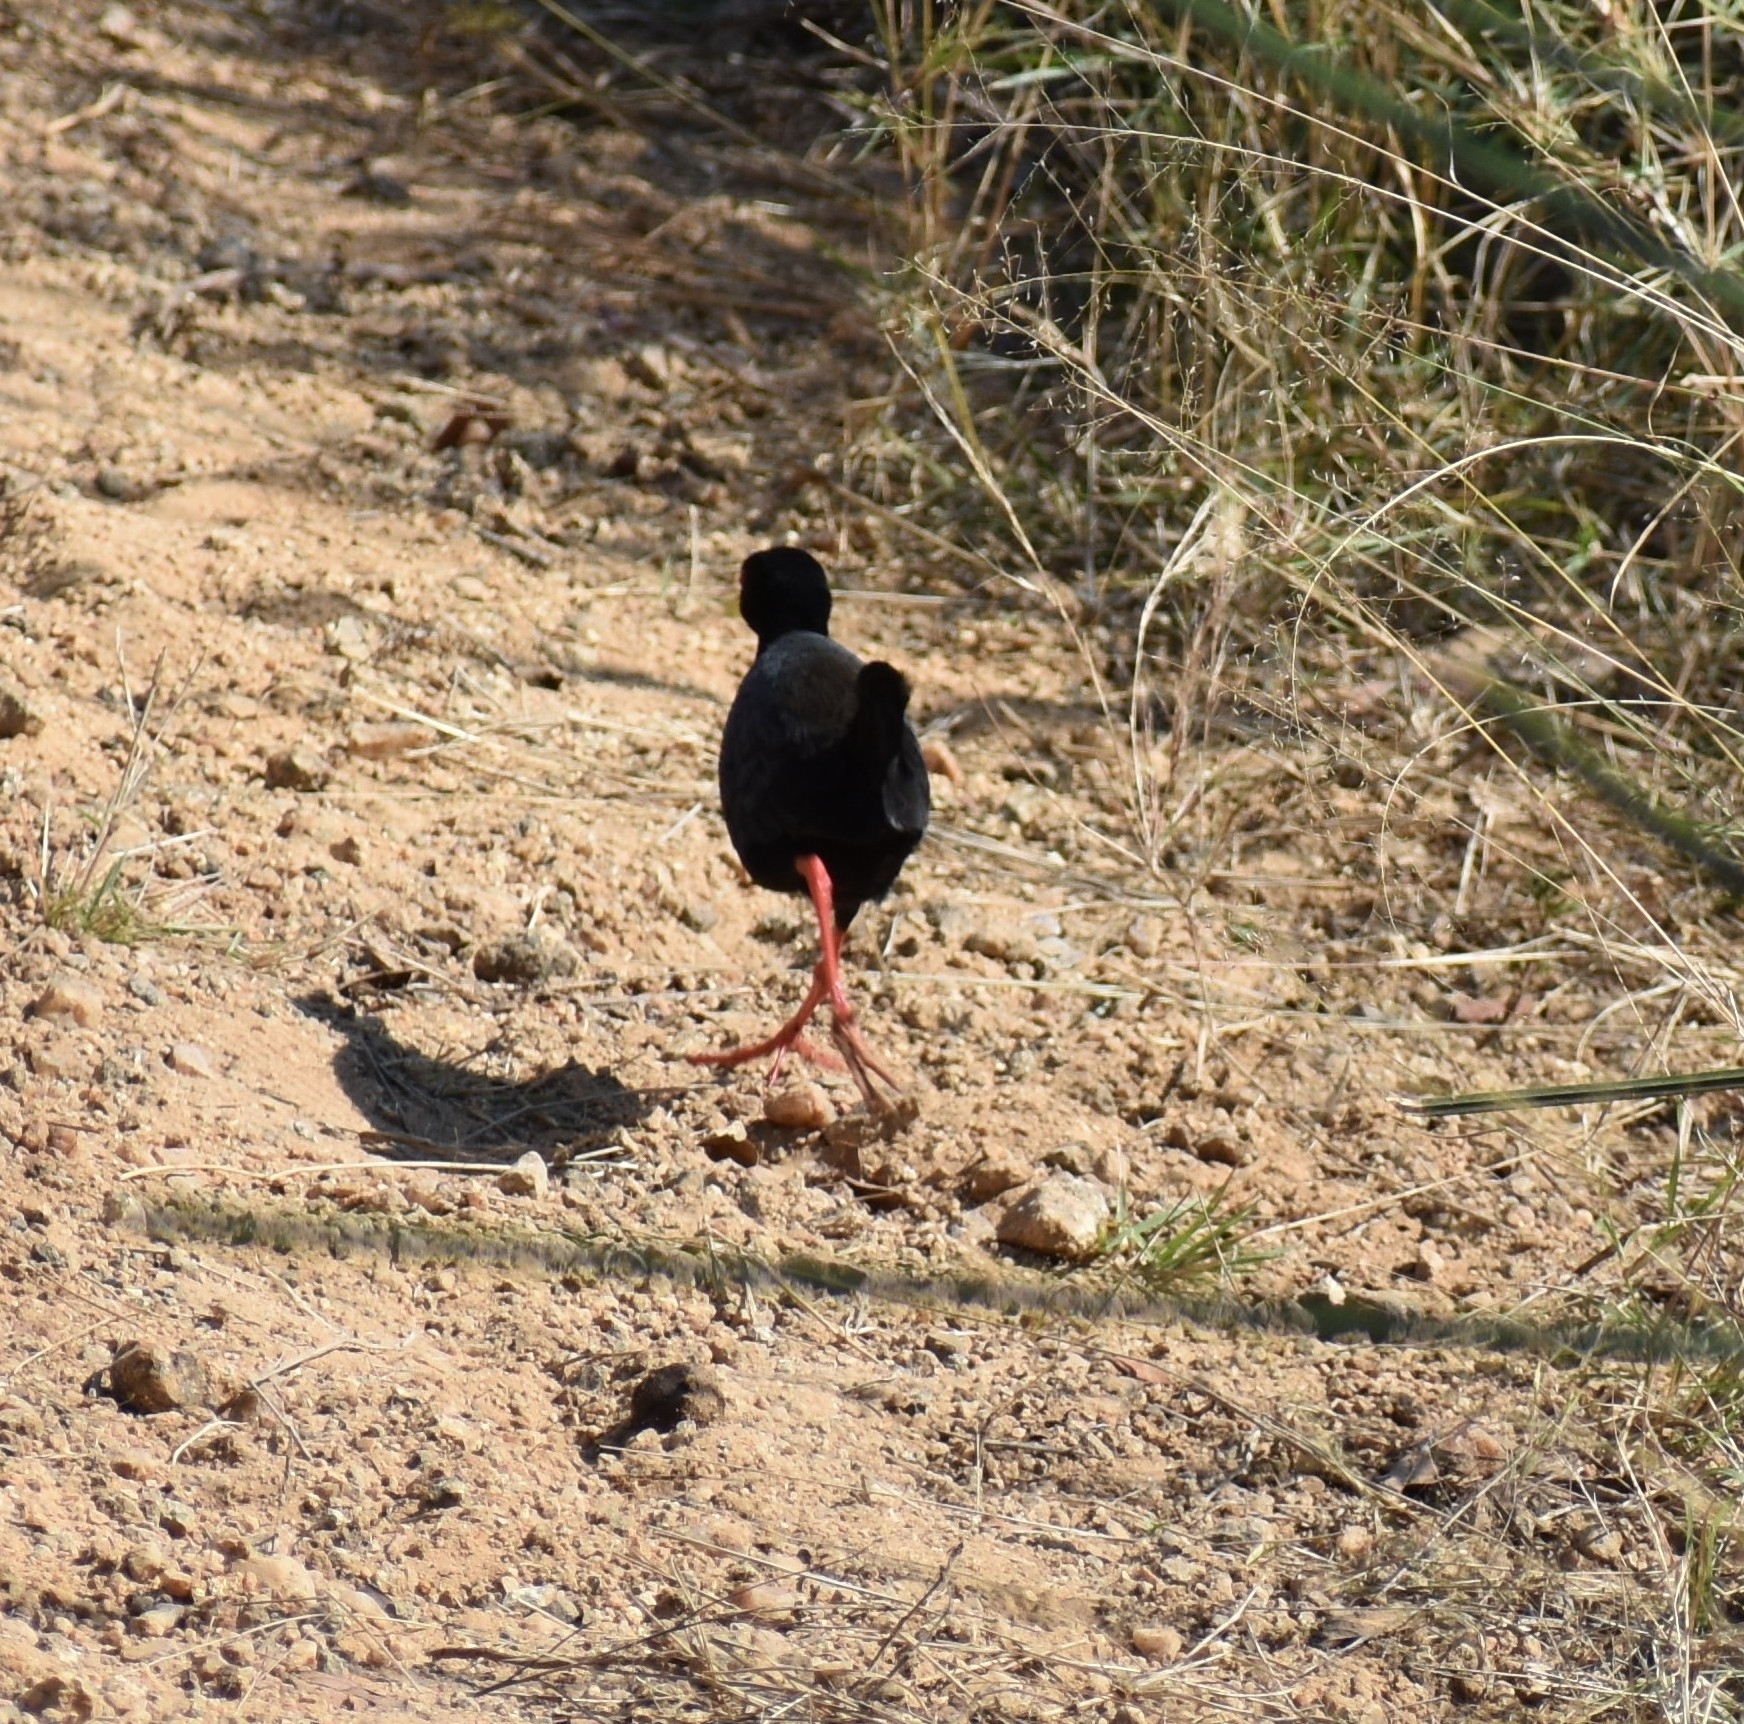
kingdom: Animalia
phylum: Chordata
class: Aves
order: Gruiformes
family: Rallidae
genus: Amaurornis
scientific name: Amaurornis flavirostra
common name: Black crake
